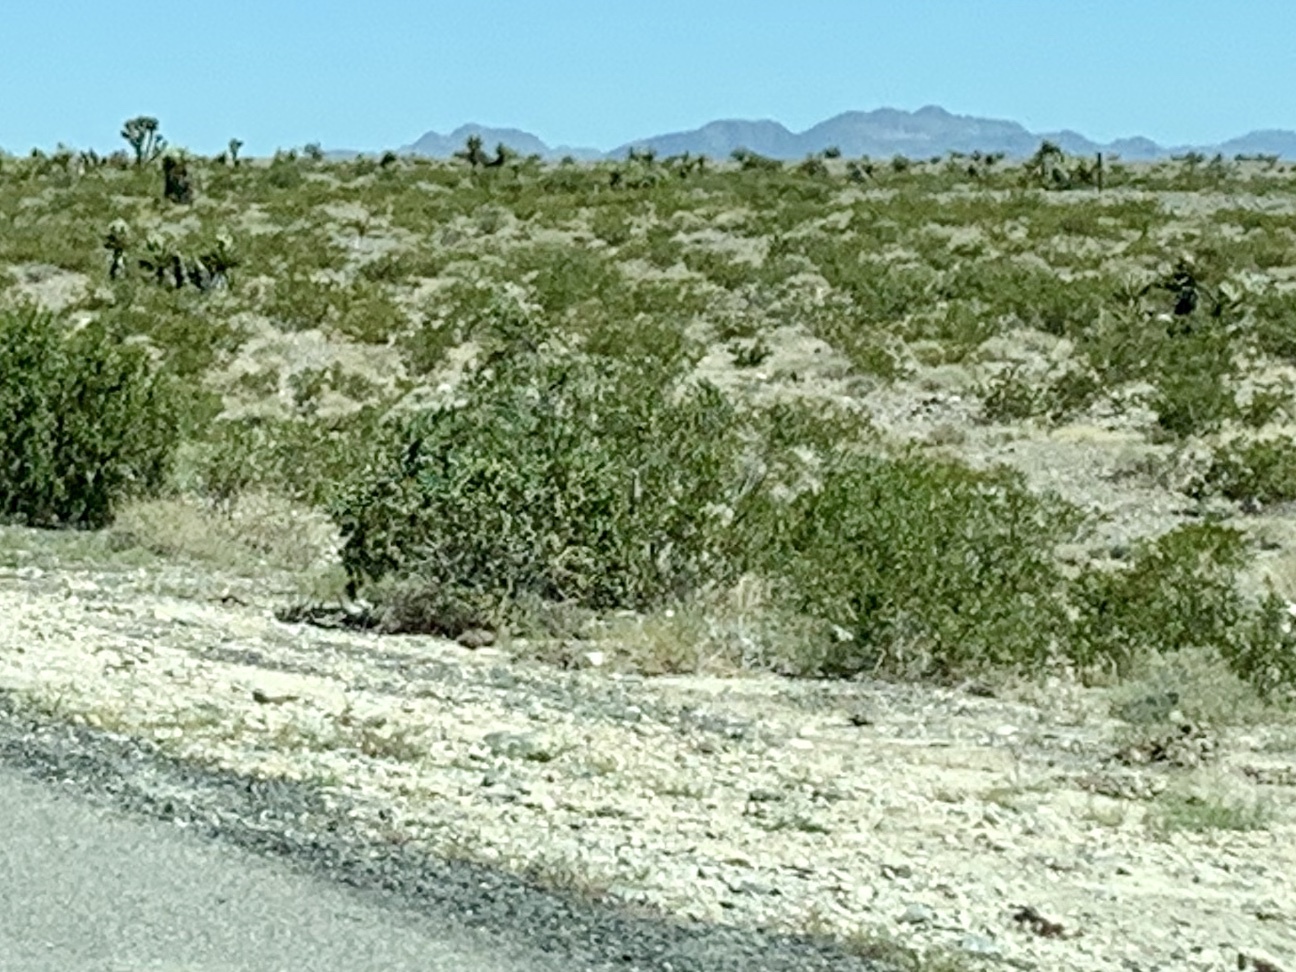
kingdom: Plantae
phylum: Tracheophyta
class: Magnoliopsida
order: Zygophyllales
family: Zygophyllaceae
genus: Larrea
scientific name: Larrea tridentata
